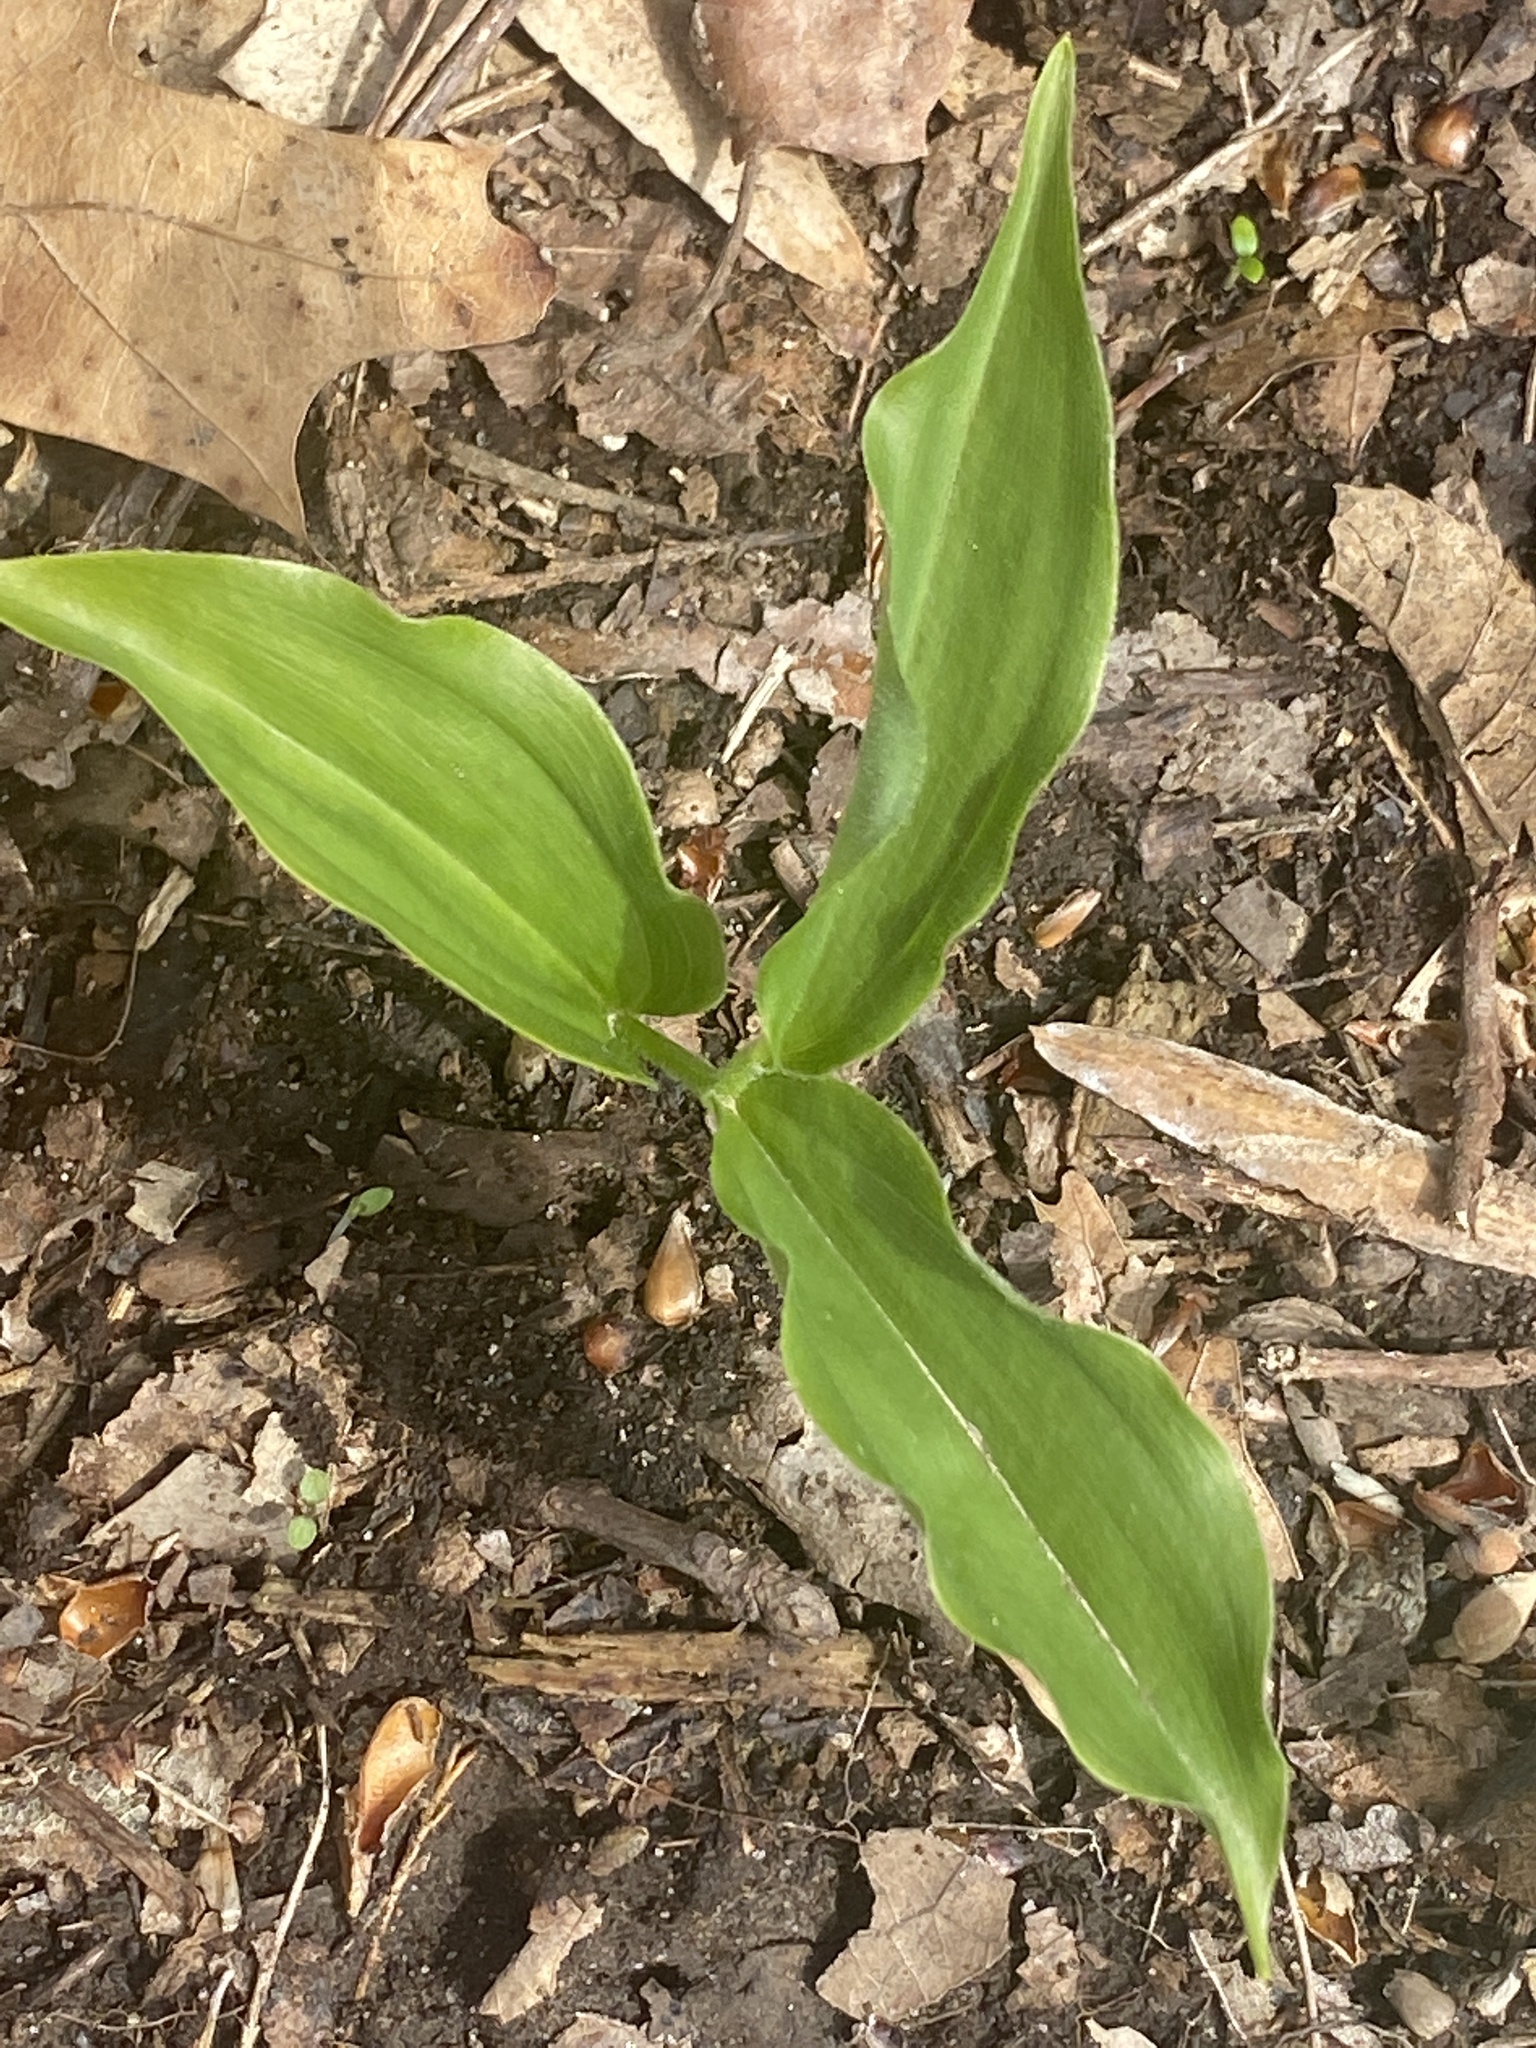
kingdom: Plantae
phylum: Tracheophyta
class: Liliopsida
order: Asparagales
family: Asparagaceae
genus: Maianthemum
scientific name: Maianthemum racemosum
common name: False spikenard
